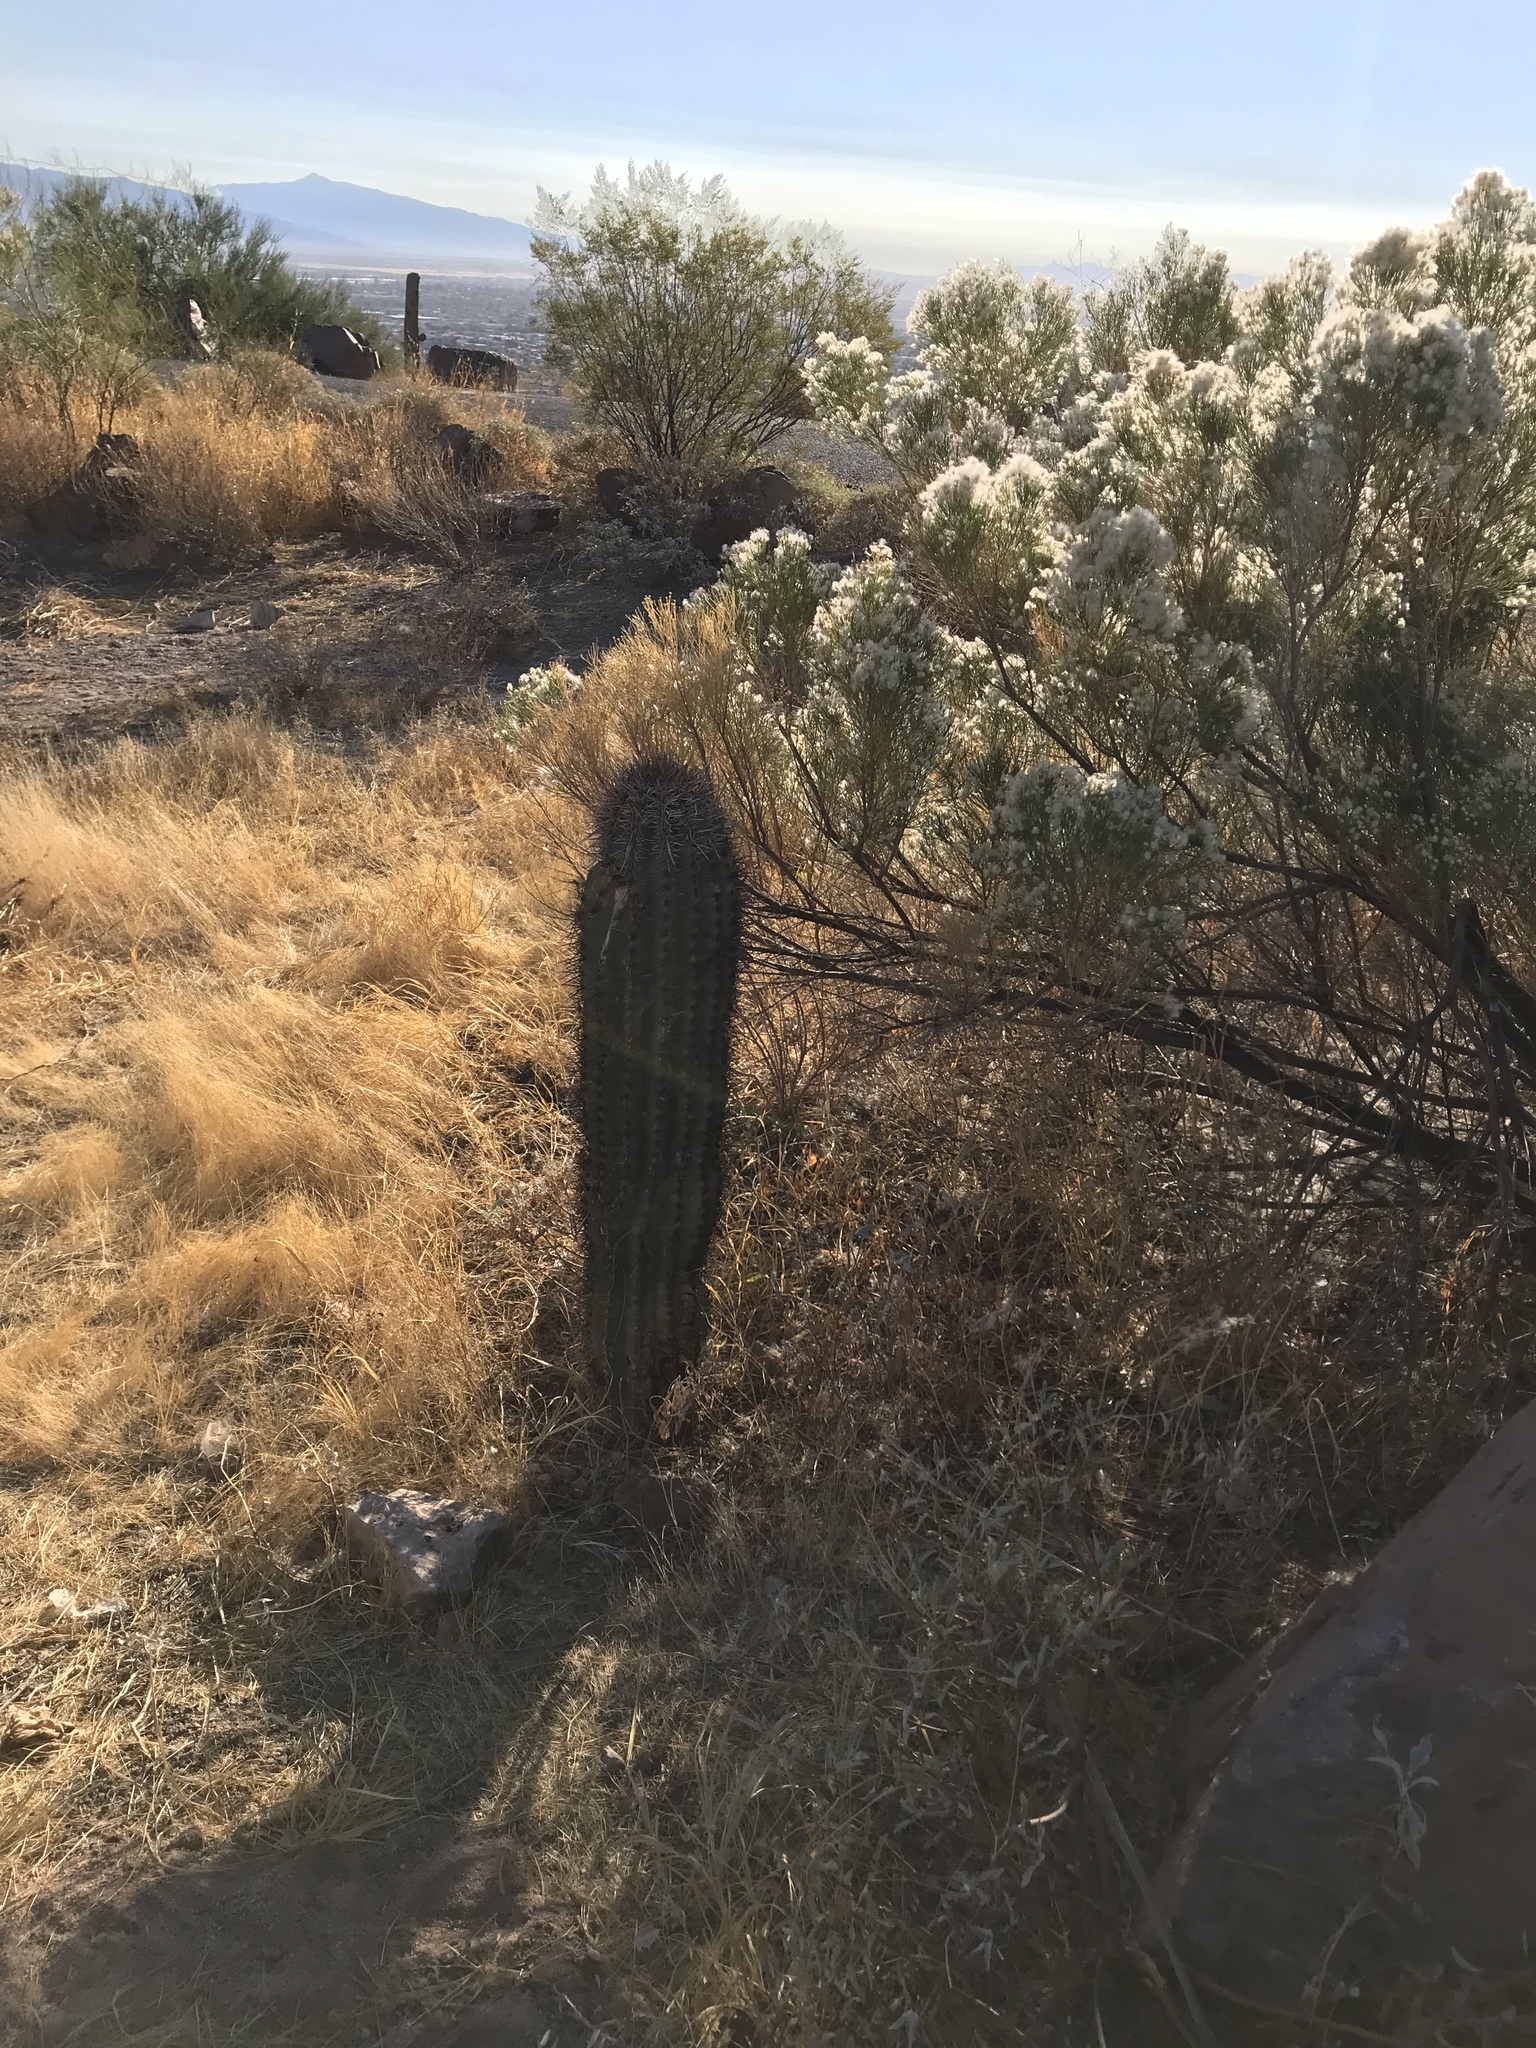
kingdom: Plantae
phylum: Tracheophyta
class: Magnoliopsida
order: Caryophyllales
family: Cactaceae
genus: Carnegiea
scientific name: Carnegiea gigantea
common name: Saguaro
